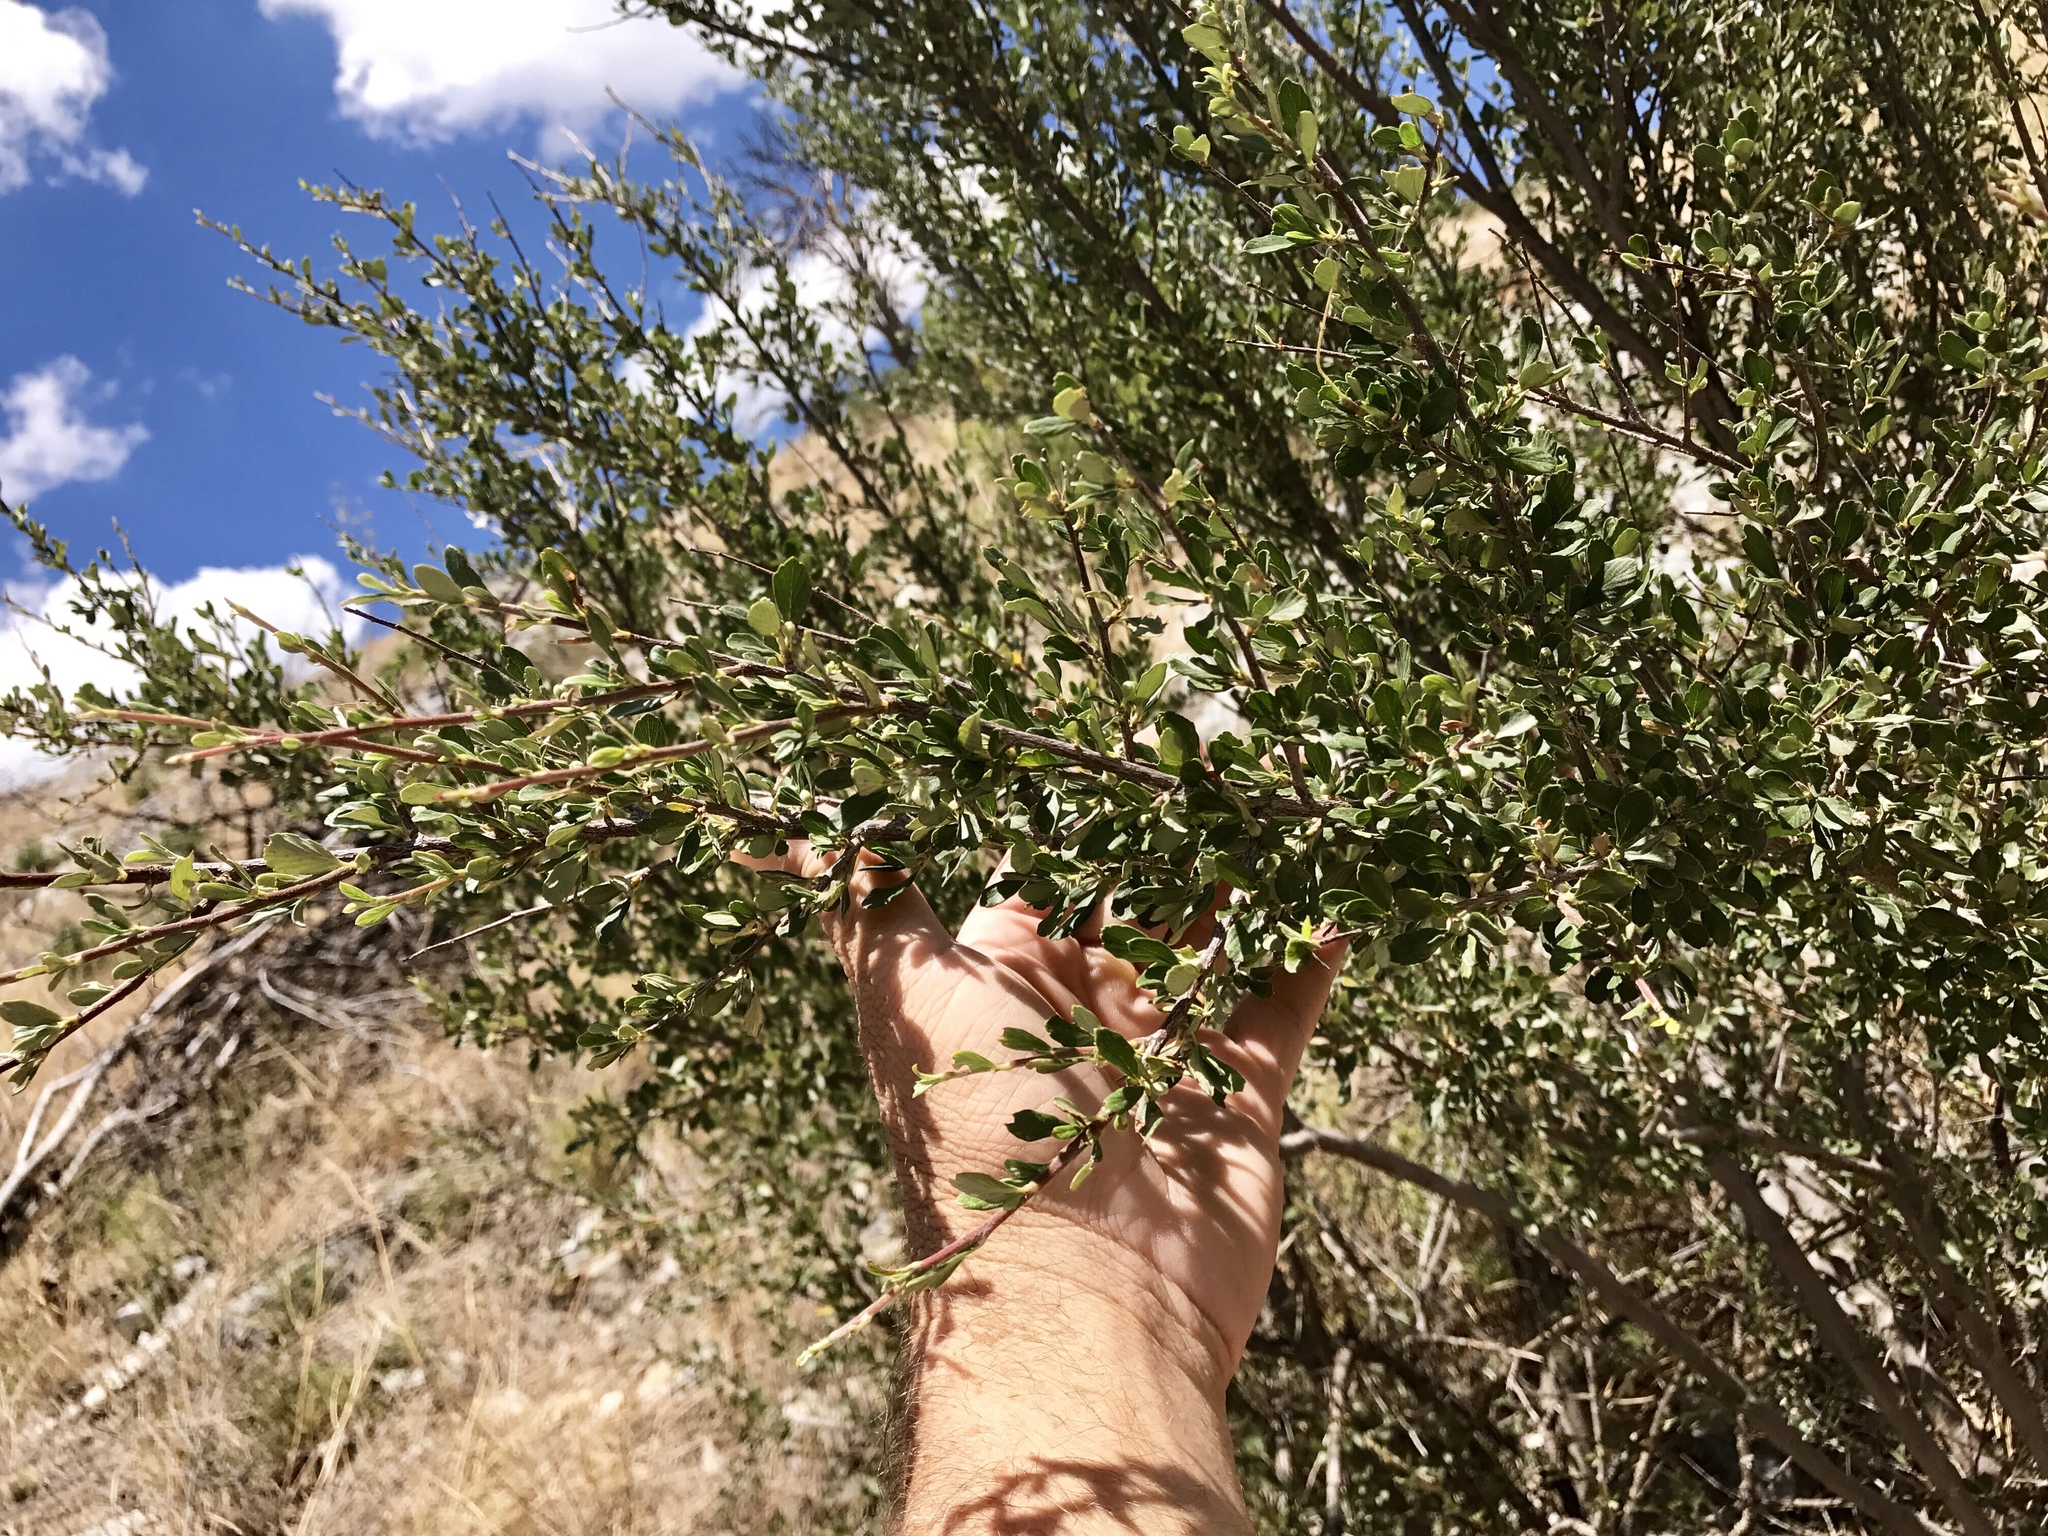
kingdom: Plantae
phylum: Tracheophyta
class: Magnoliopsida
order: Rosales
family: Rosaceae
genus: Cercocarpus
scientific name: Cercocarpus breviflorus
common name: Wright's mountain-mahogany
